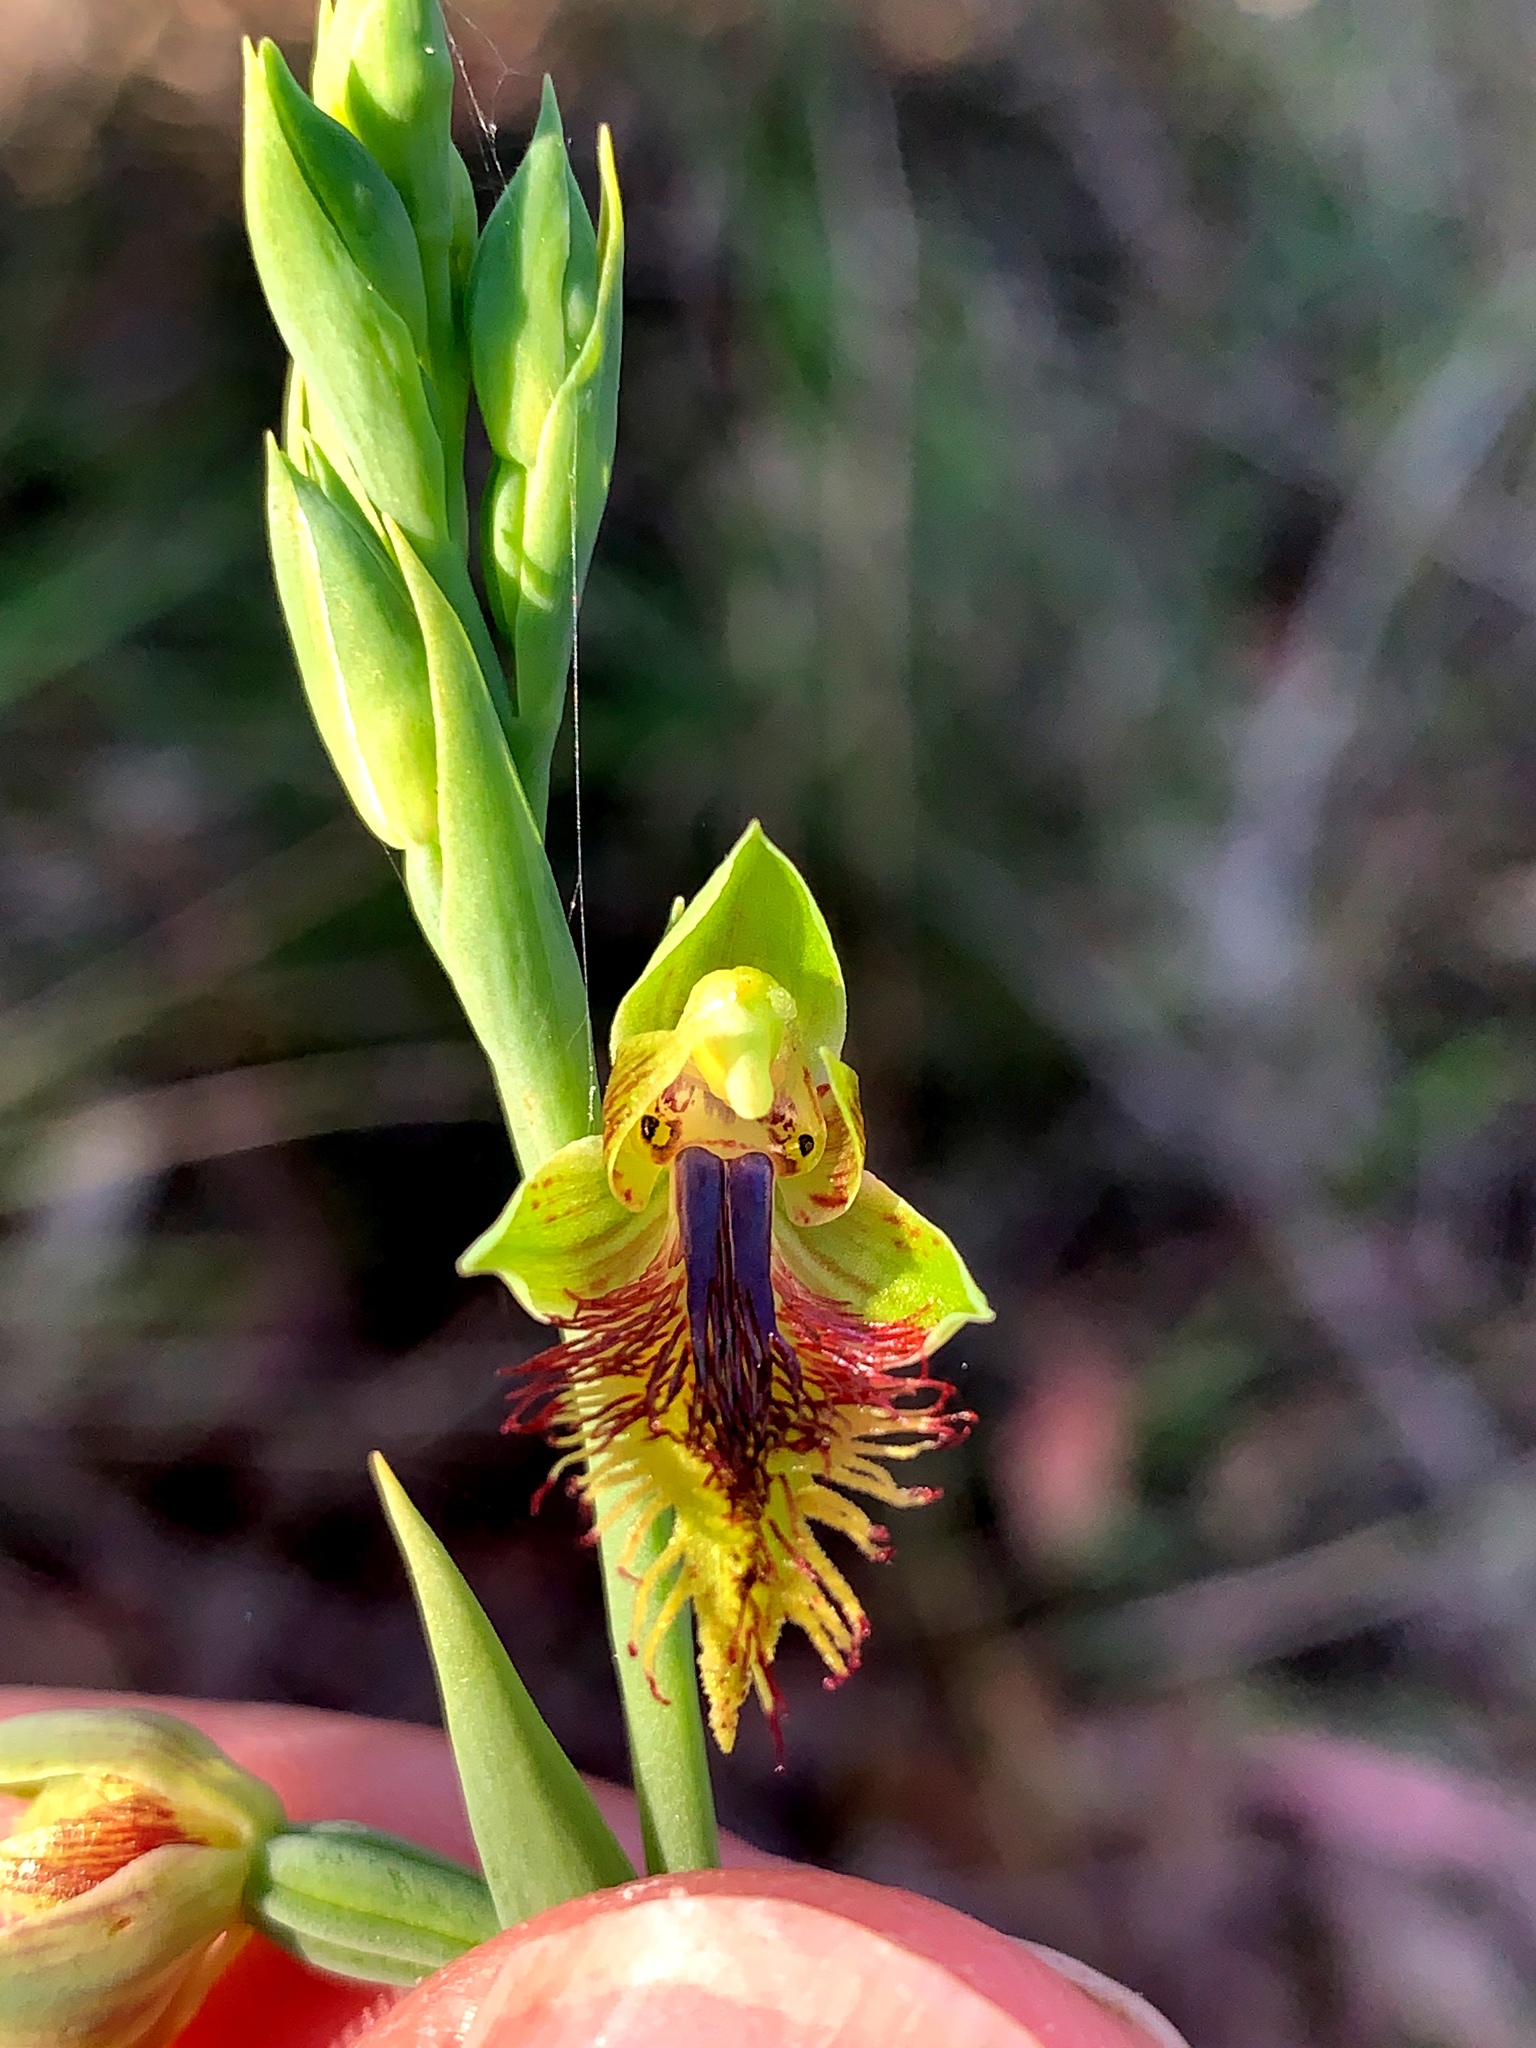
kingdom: Plantae
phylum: Tracheophyta
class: Liliopsida
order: Asparagales
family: Orchidaceae
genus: Calochilus
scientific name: Calochilus campestris
